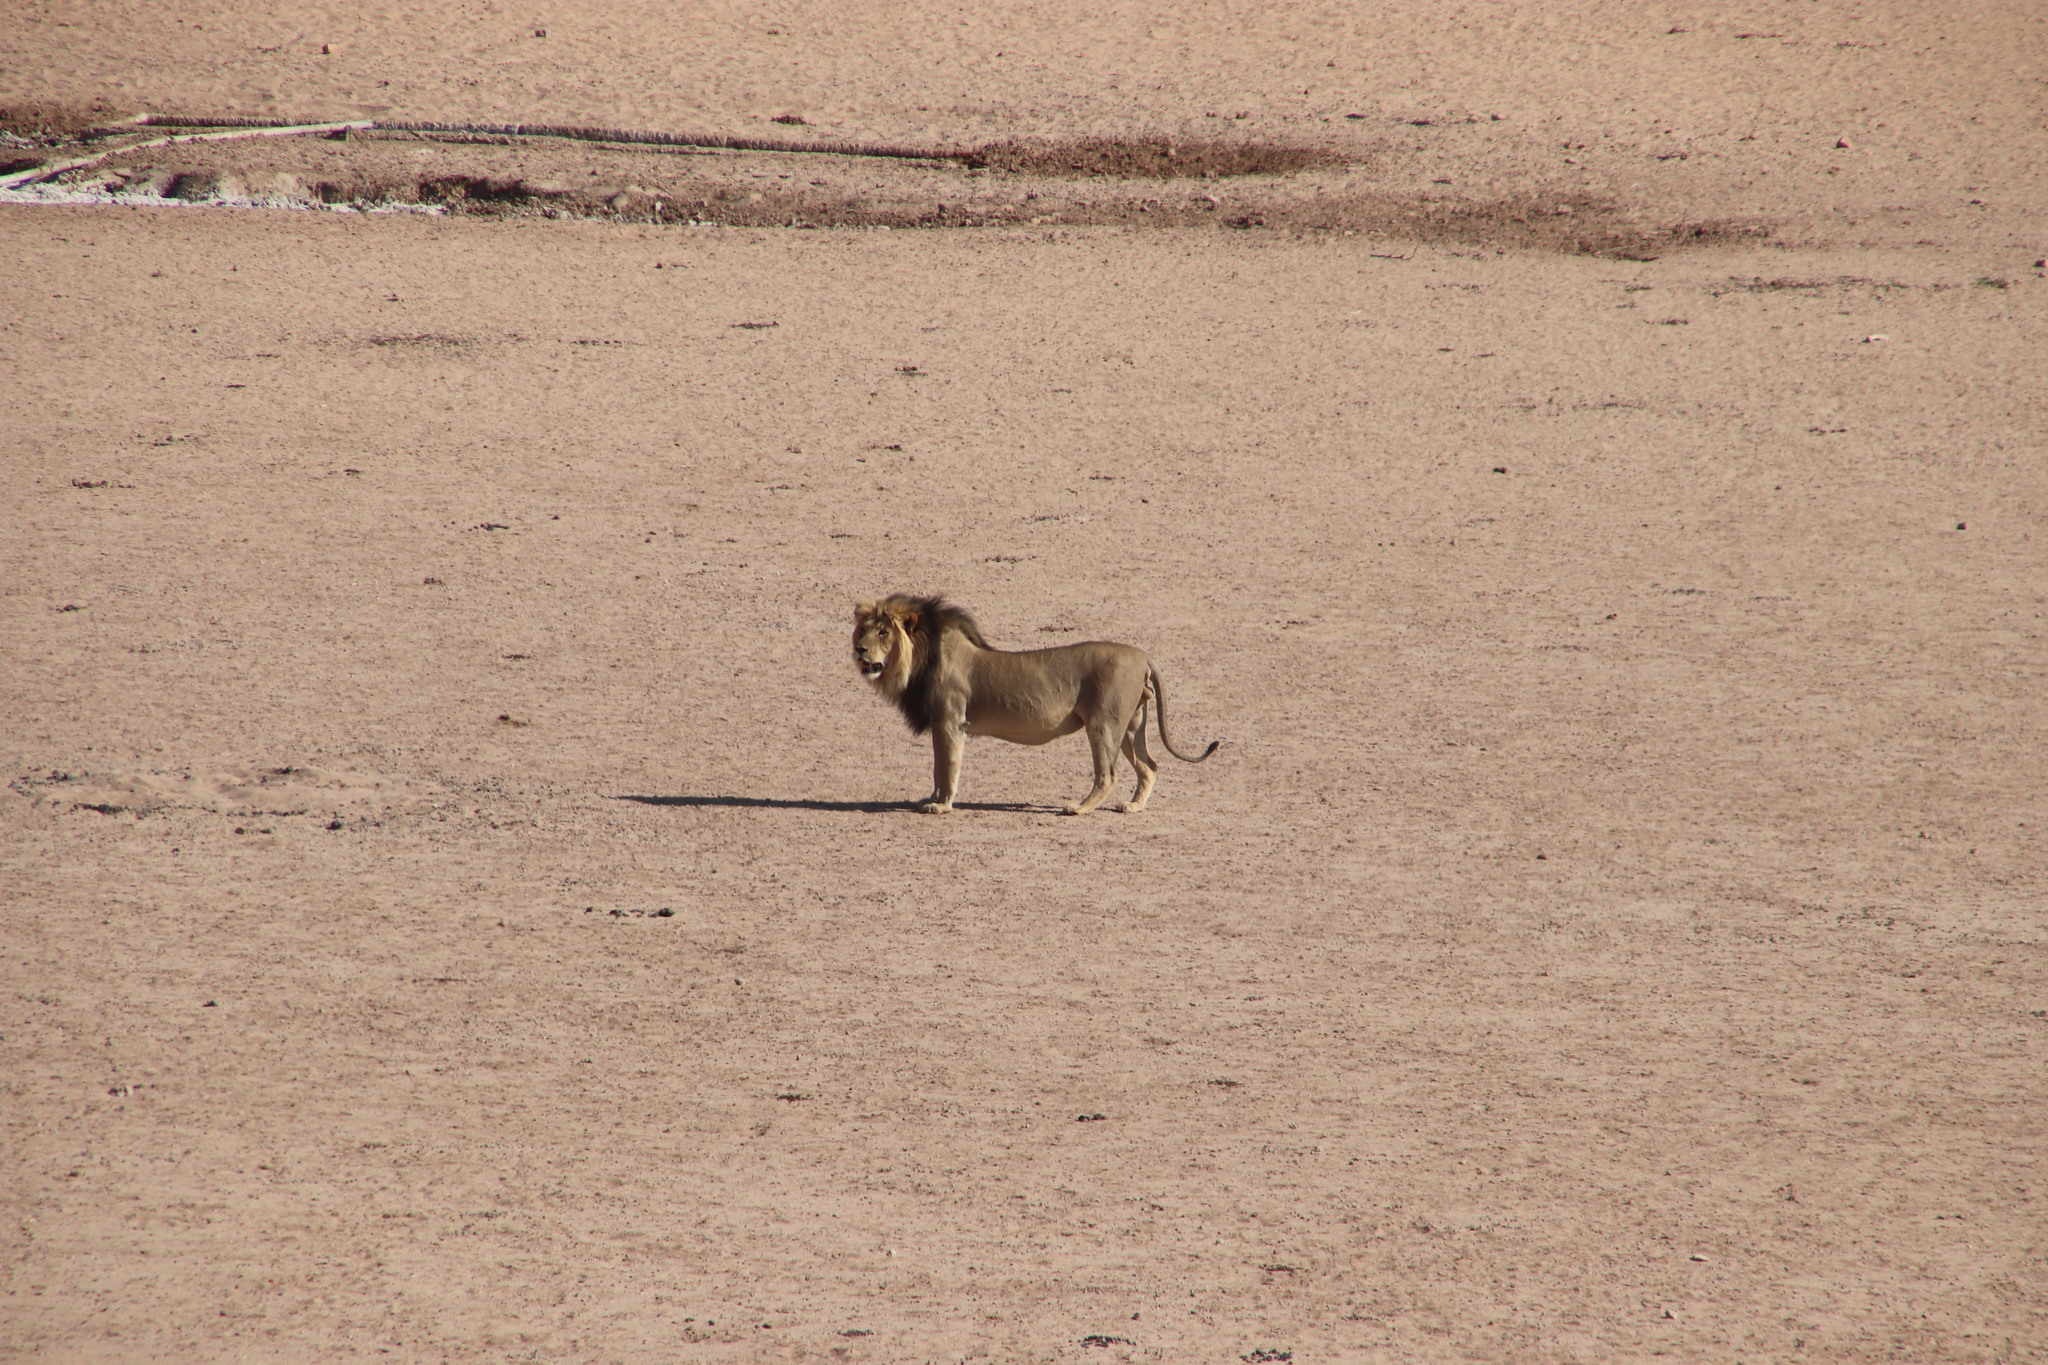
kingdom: Animalia
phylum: Chordata
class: Mammalia
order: Carnivora
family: Felidae
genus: Panthera
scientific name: Panthera leo
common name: Lion
